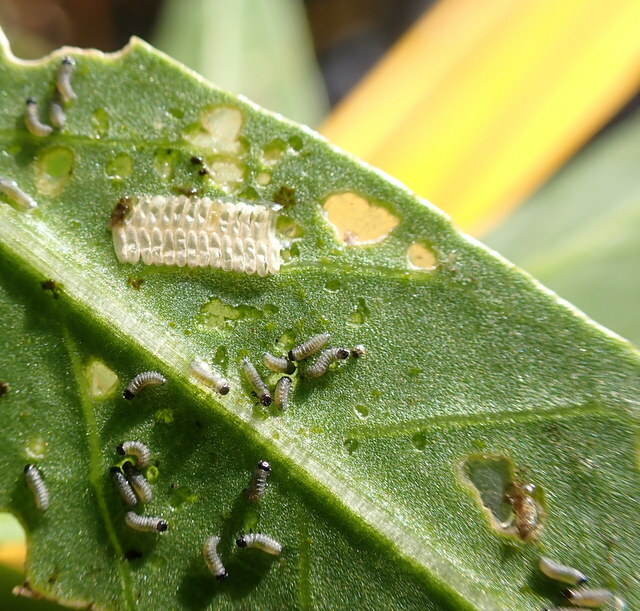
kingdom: Animalia
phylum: Arthropoda
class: Insecta
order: Coleoptera
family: Chrysomelidae
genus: Agasicles
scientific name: Agasicles hygrophila
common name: Alligatorweed flea beetle
